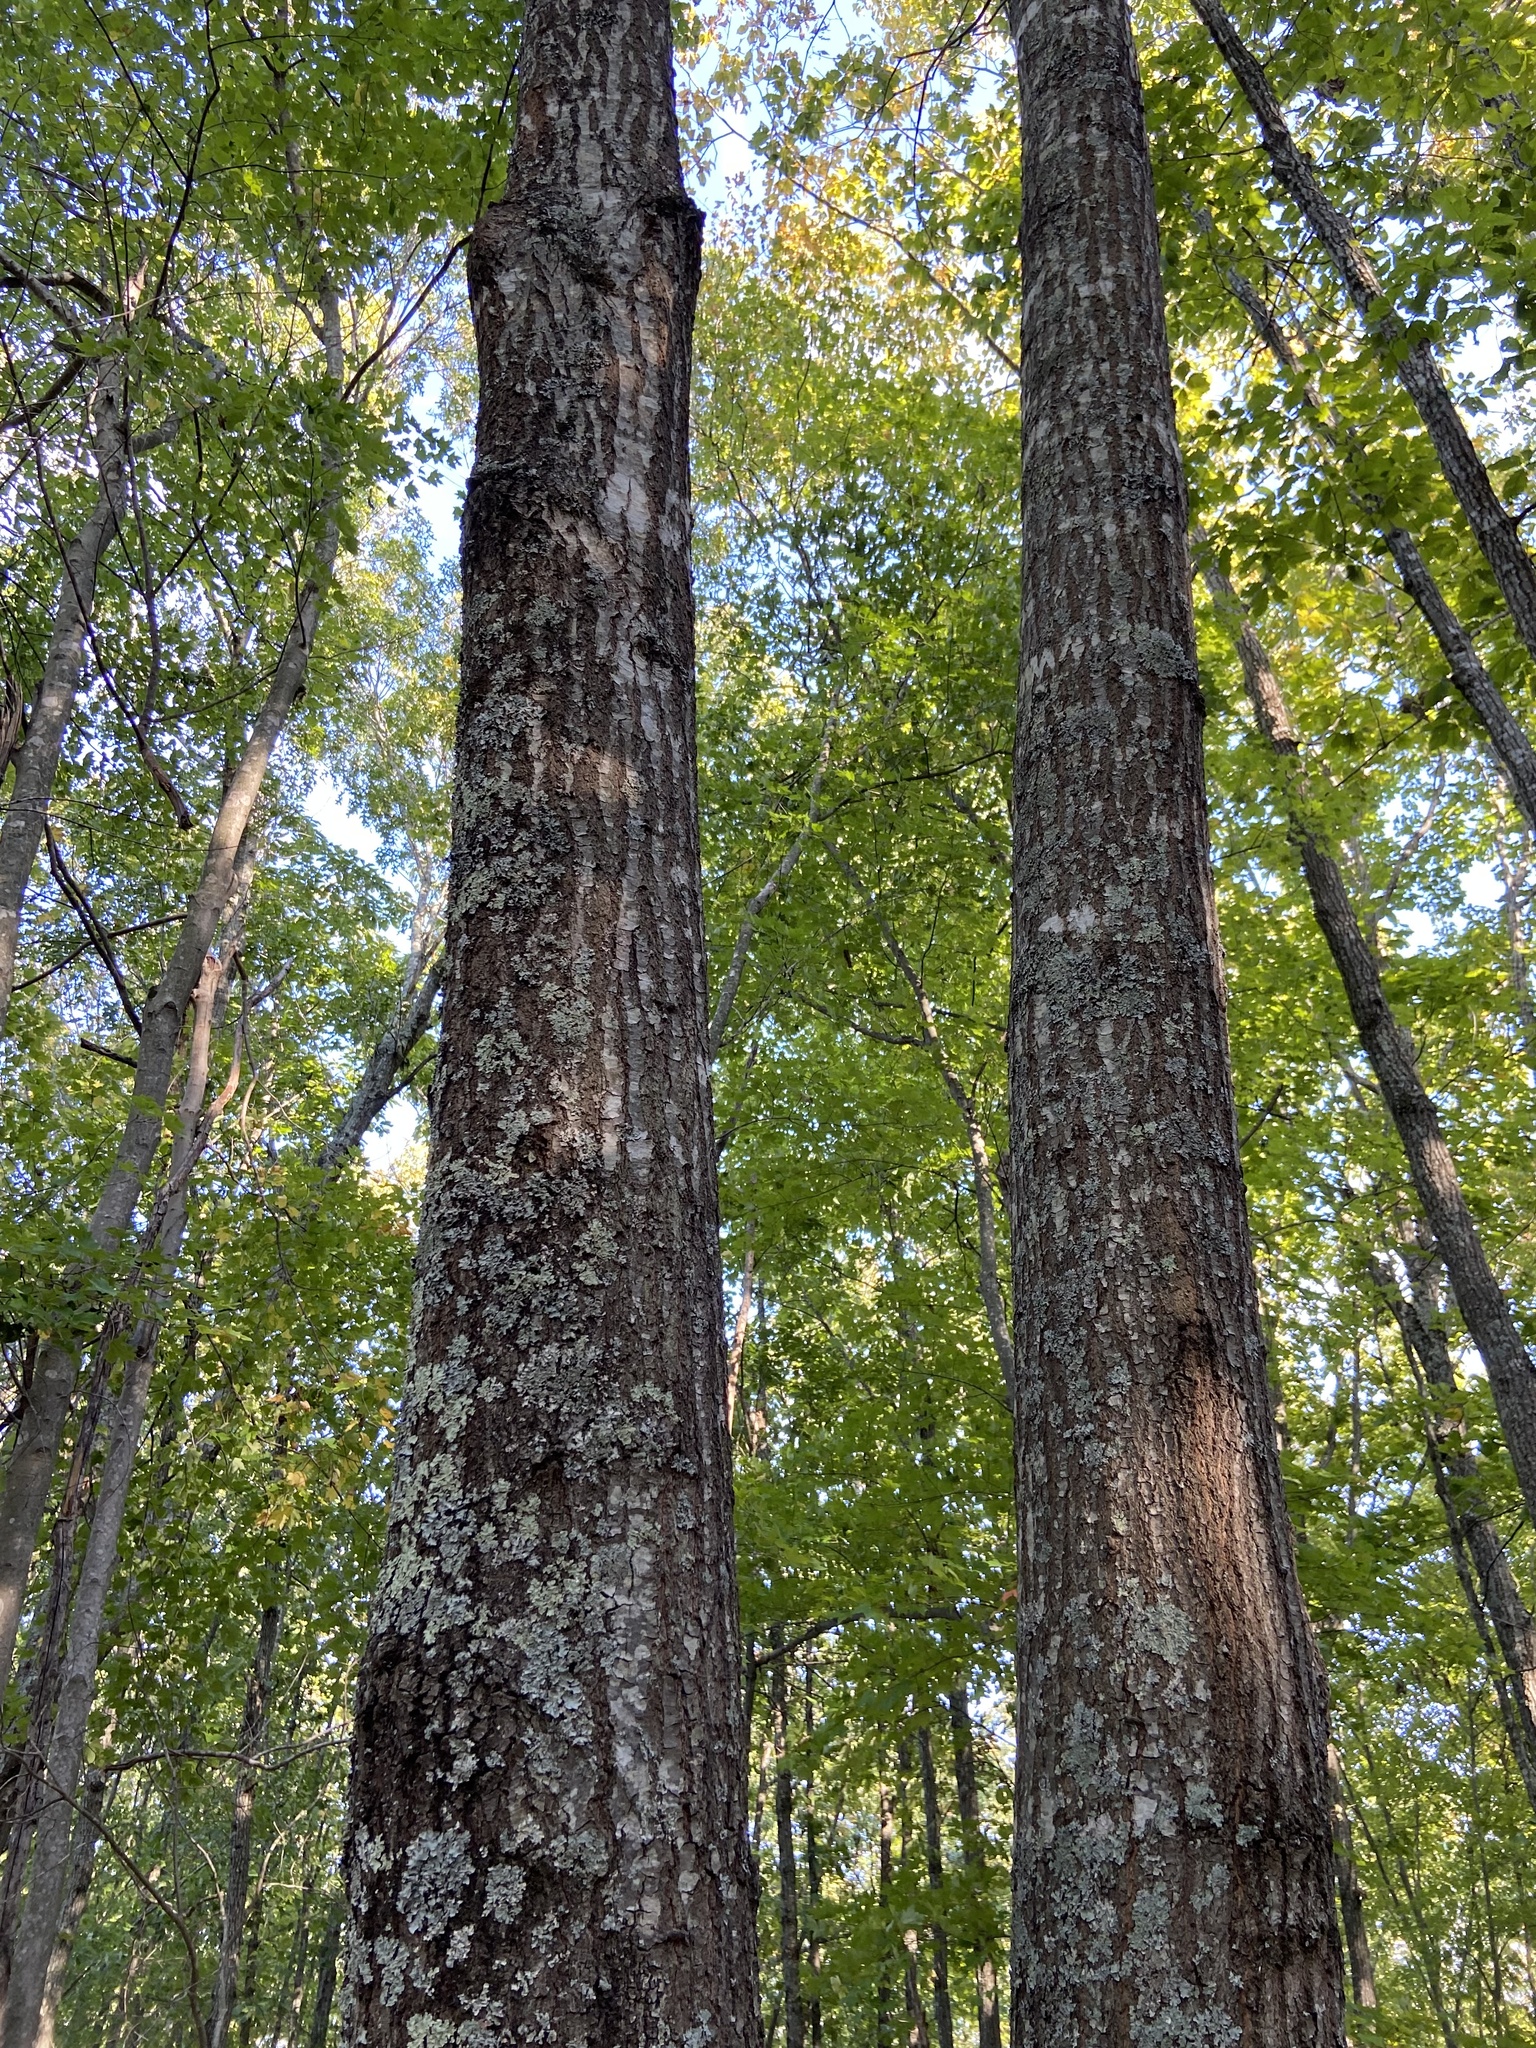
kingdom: Plantae
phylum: Tracheophyta
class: Magnoliopsida
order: Fagales
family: Fagaceae
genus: Quercus
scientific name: Quercus coccinea
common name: Scarlet oak
